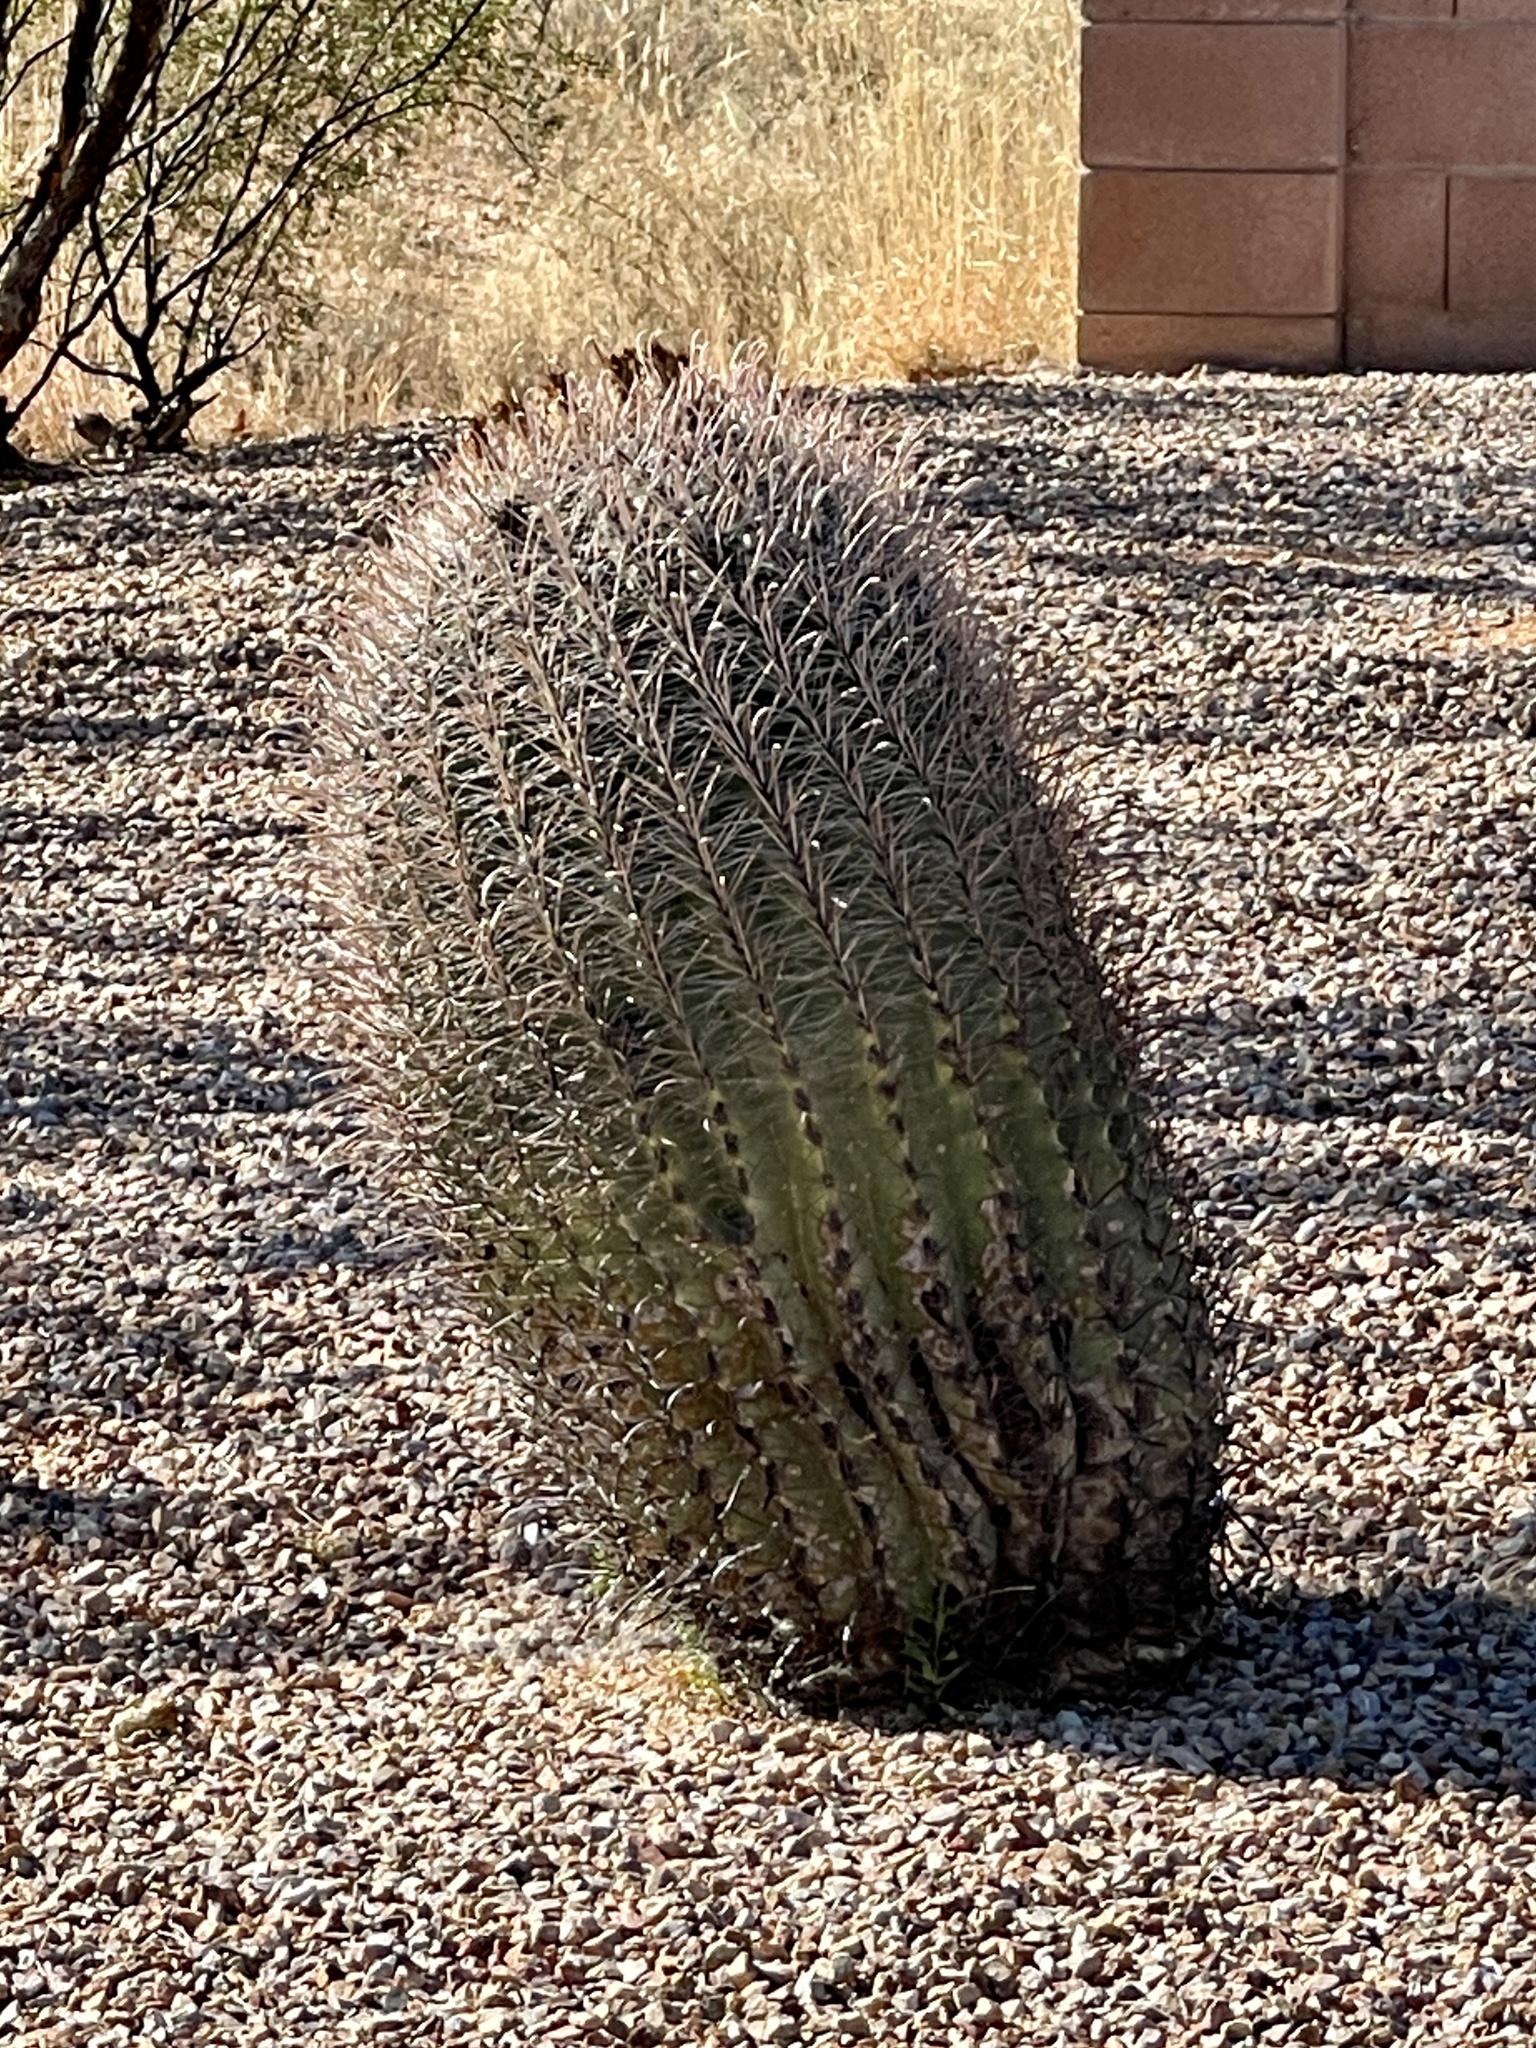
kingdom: Plantae
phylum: Tracheophyta
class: Magnoliopsida
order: Caryophyllales
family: Cactaceae
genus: Ferocactus
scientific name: Ferocactus wislizeni
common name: Candy barrel cactus
